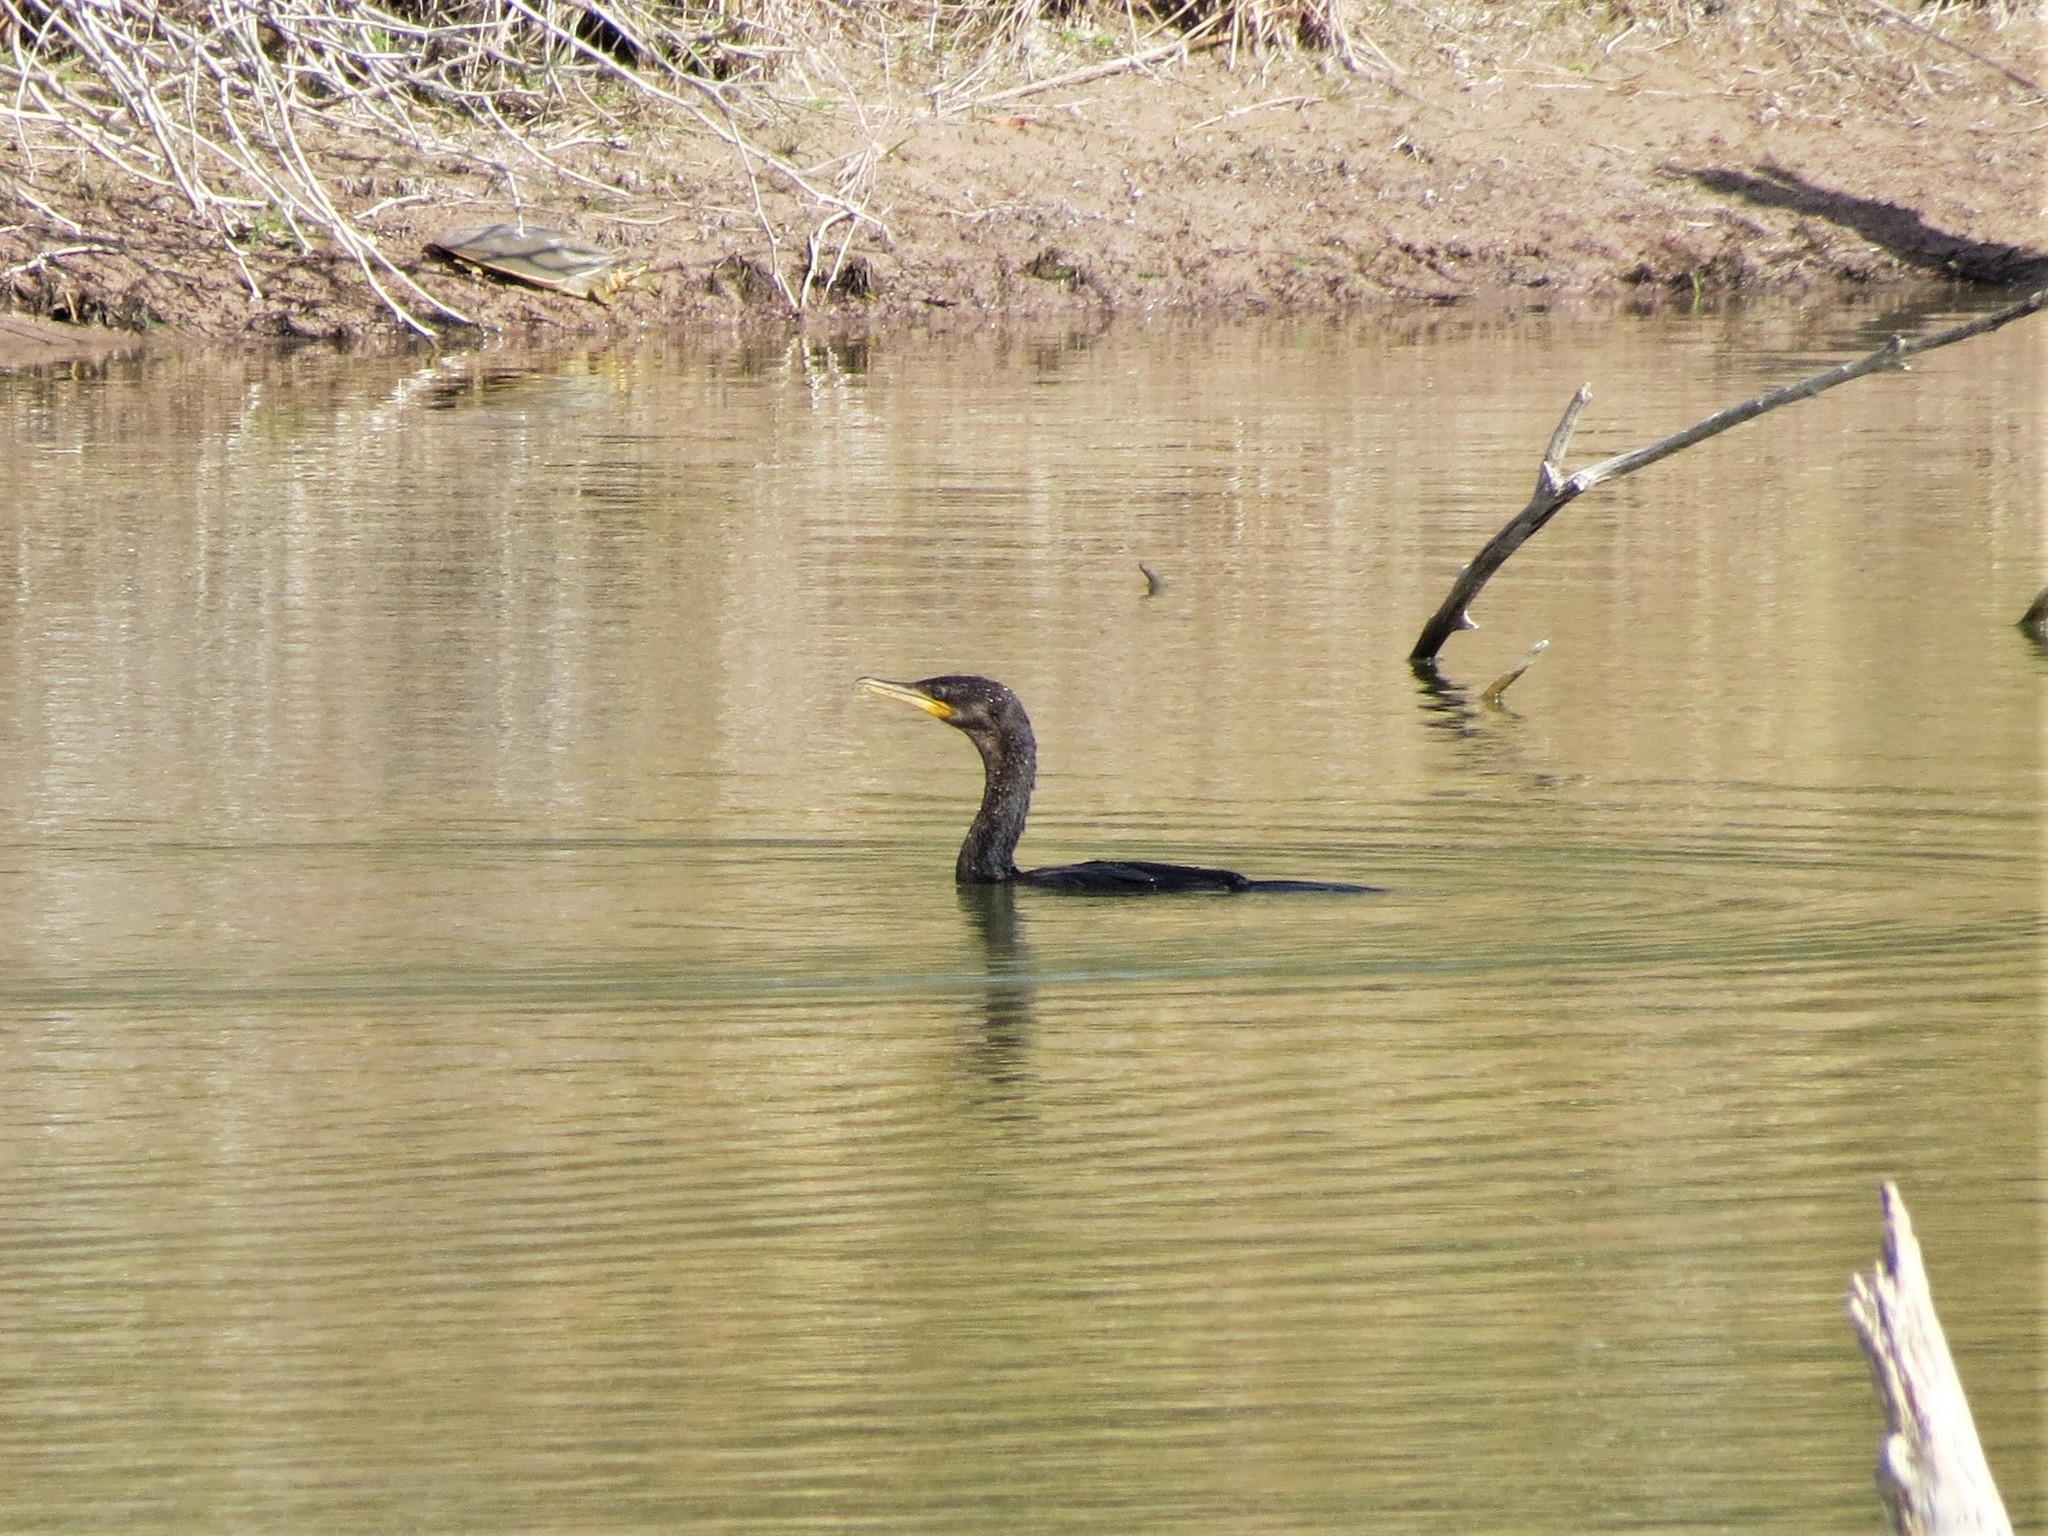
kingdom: Animalia
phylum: Chordata
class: Aves
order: Suliformes
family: Phalacrocoracidae
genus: Phalacrocorax
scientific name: Phalacrocorax brasilianus
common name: Neotropic cormorant
